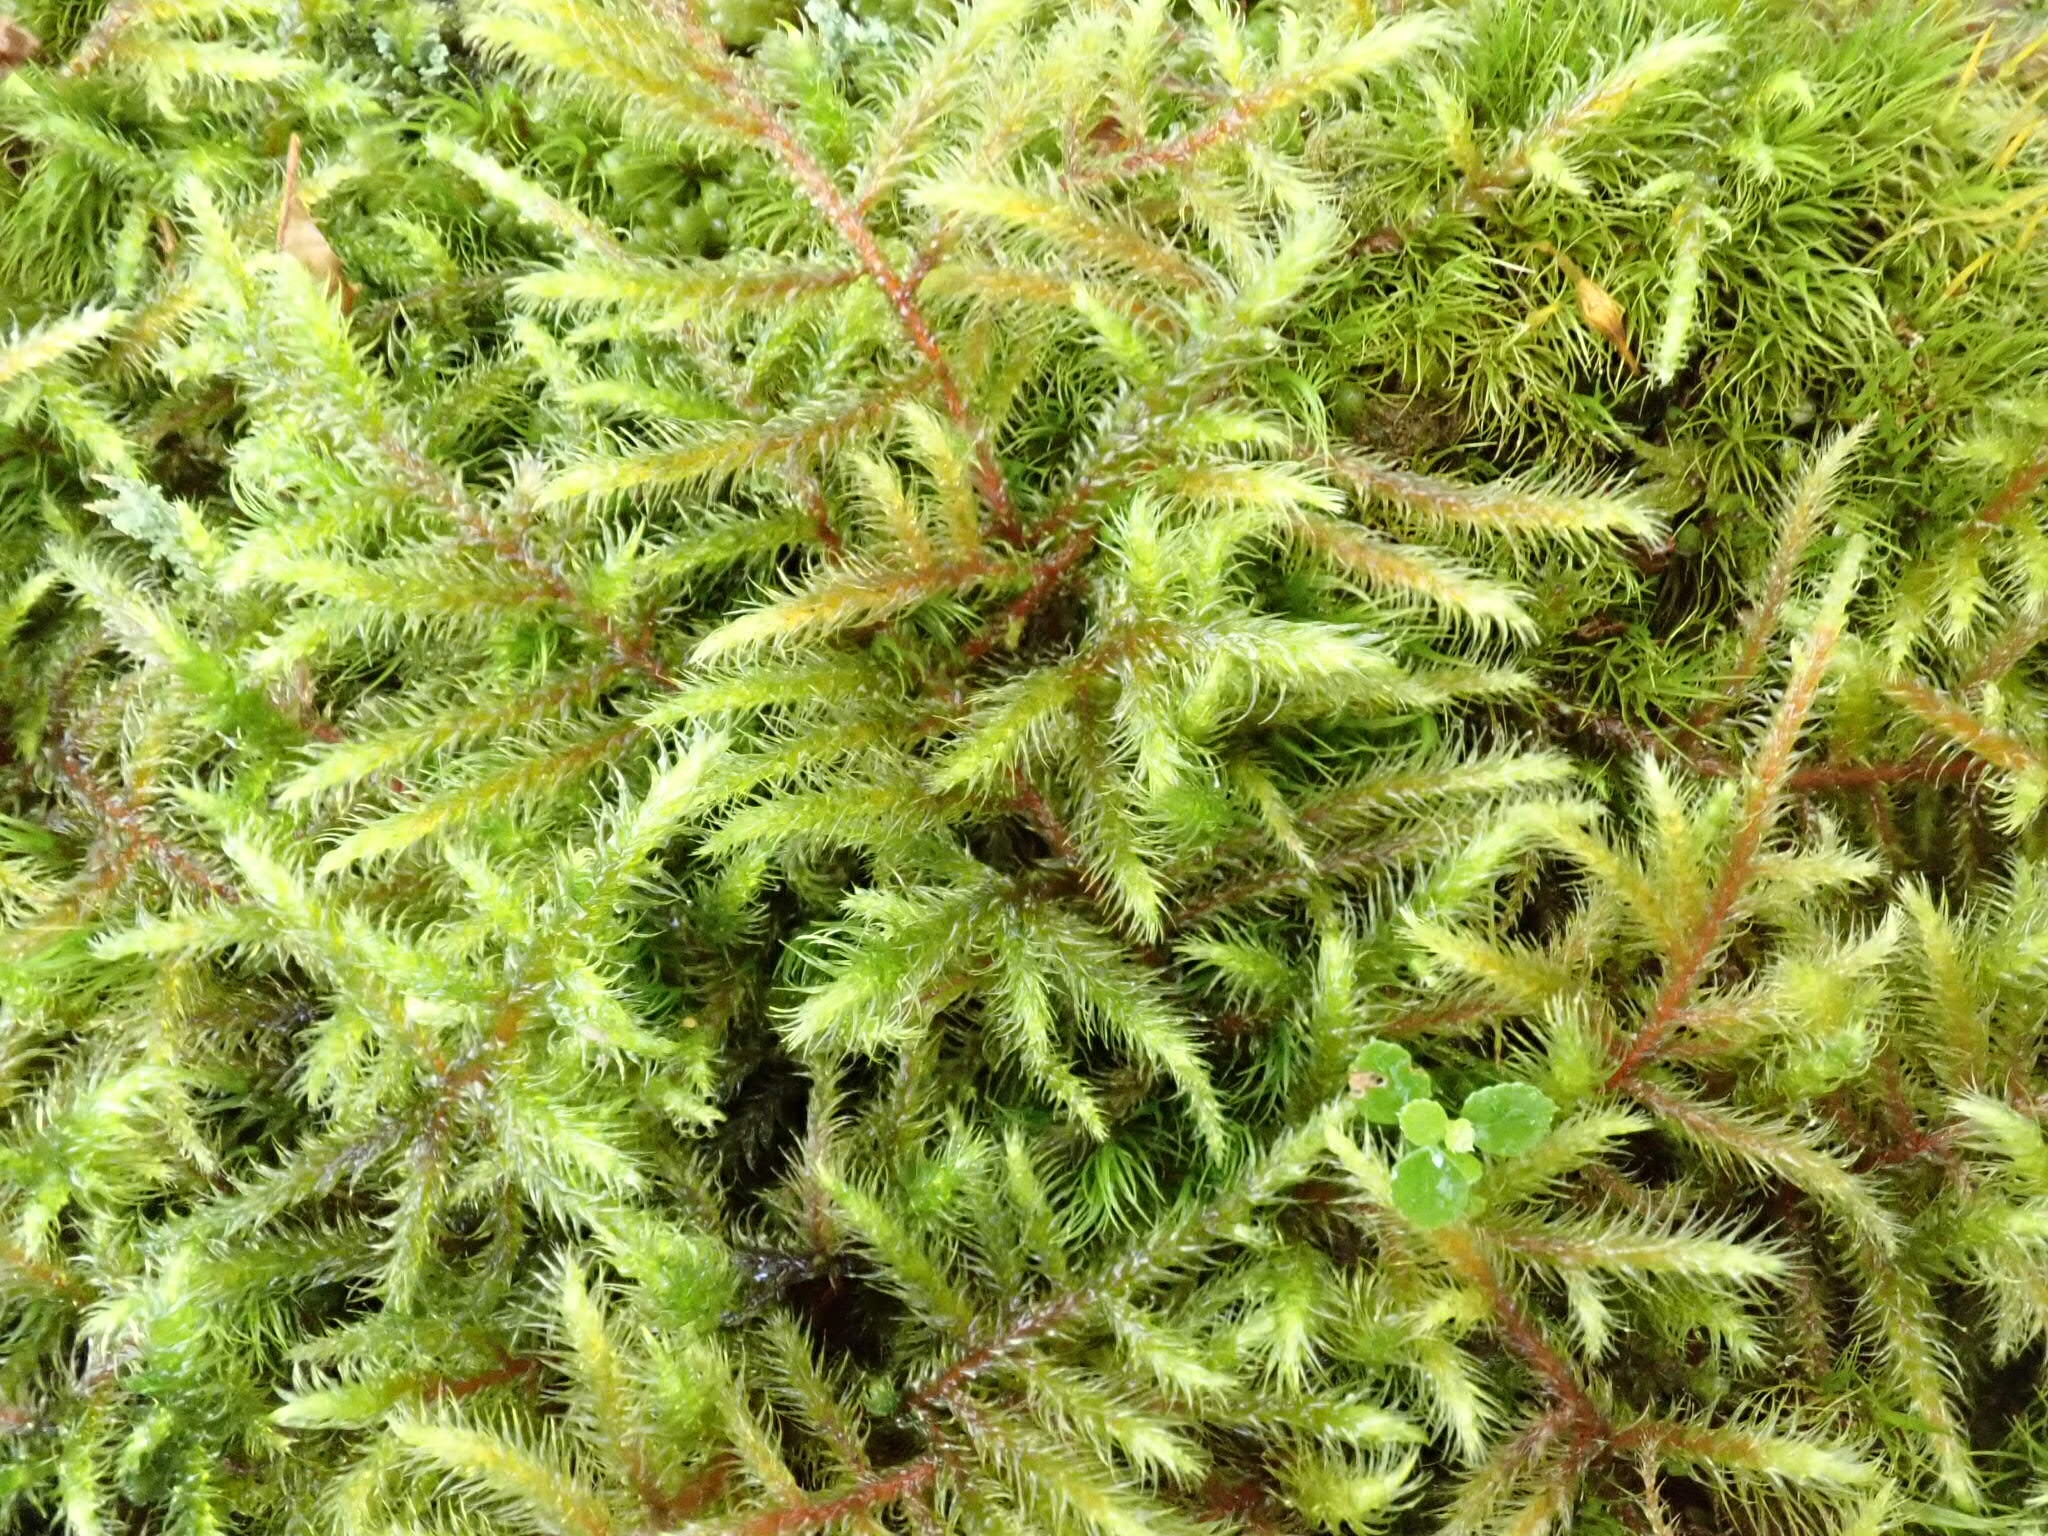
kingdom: Plantae
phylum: Bryophyta
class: Bryopsida
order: Hypnales
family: Hylocomiaceae
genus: Rhytidiadelphus
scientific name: Rhytidiadelphus loreus
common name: Lanky moss
